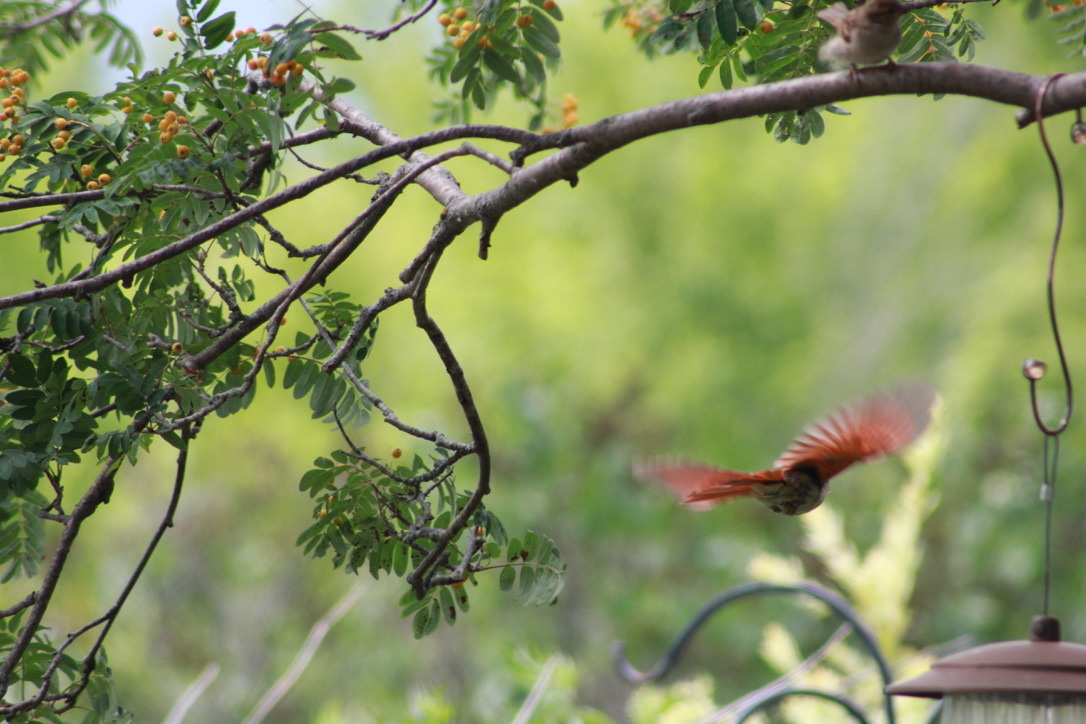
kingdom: Animalia
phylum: Chordata
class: Aves
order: Passeriformes
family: Cardinalidae
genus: Cardinalis
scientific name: Cardinalis cardinalis
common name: Northern cardinal
